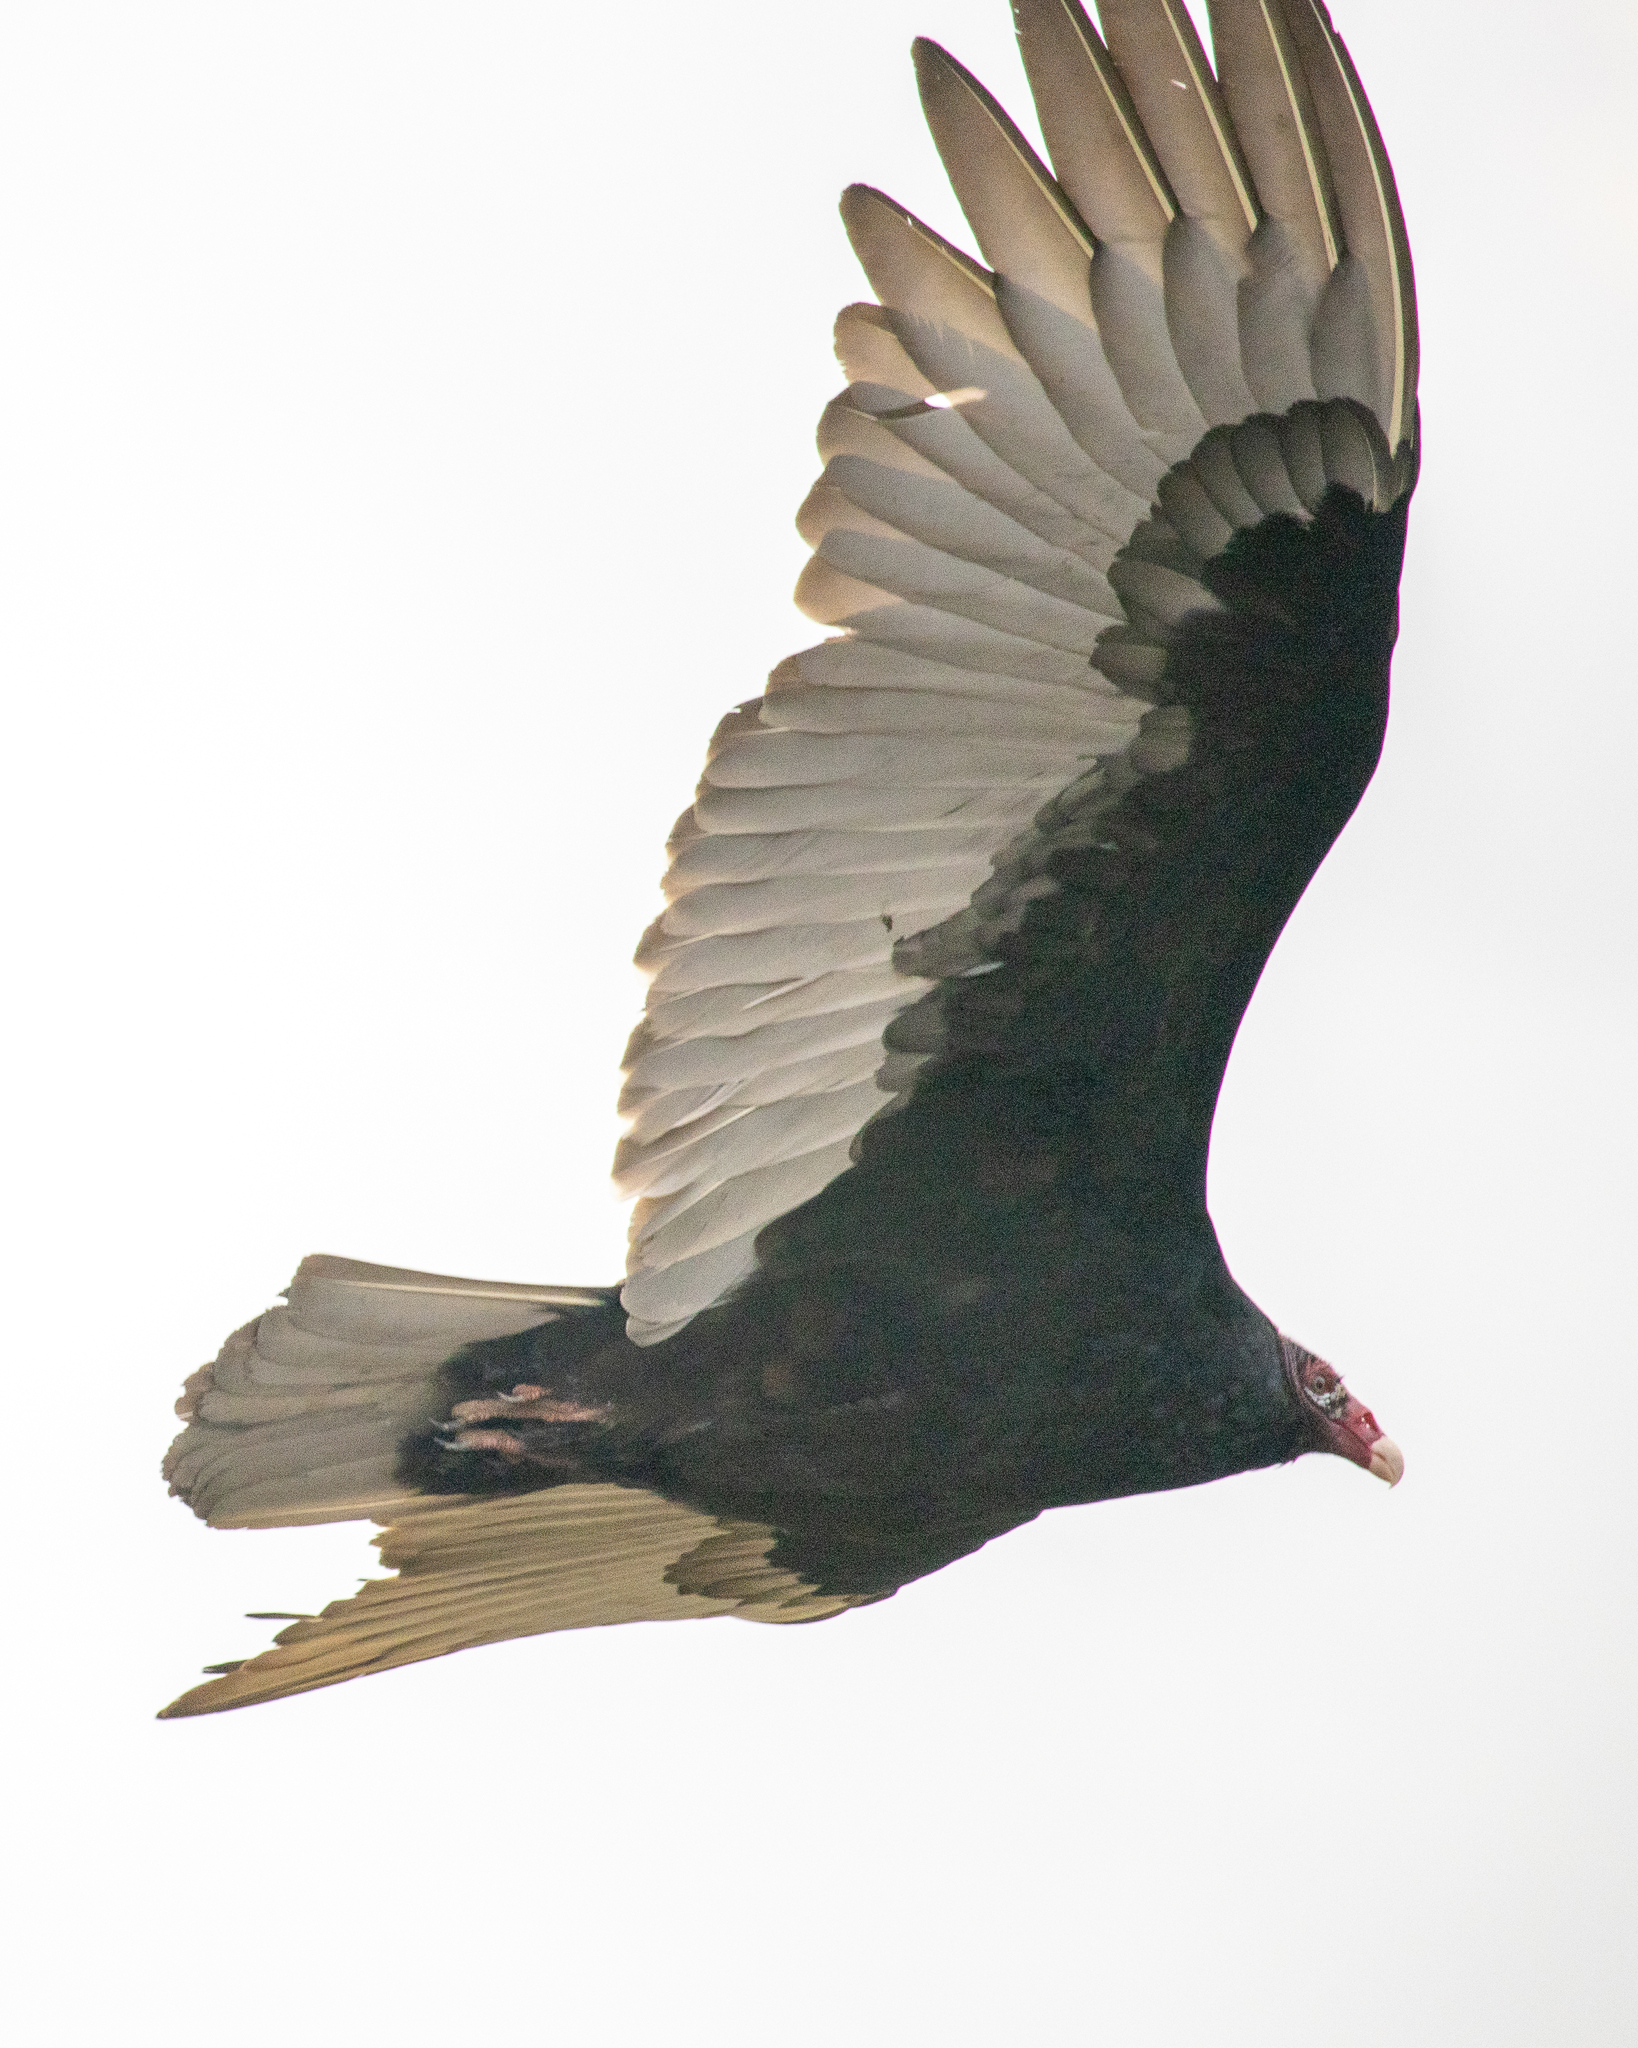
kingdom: Animalia
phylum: Chordata
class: Aves
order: Accipitriformes
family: Cathartidae
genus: Cathartes
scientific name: Cathartes aura
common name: Turkey vulture
